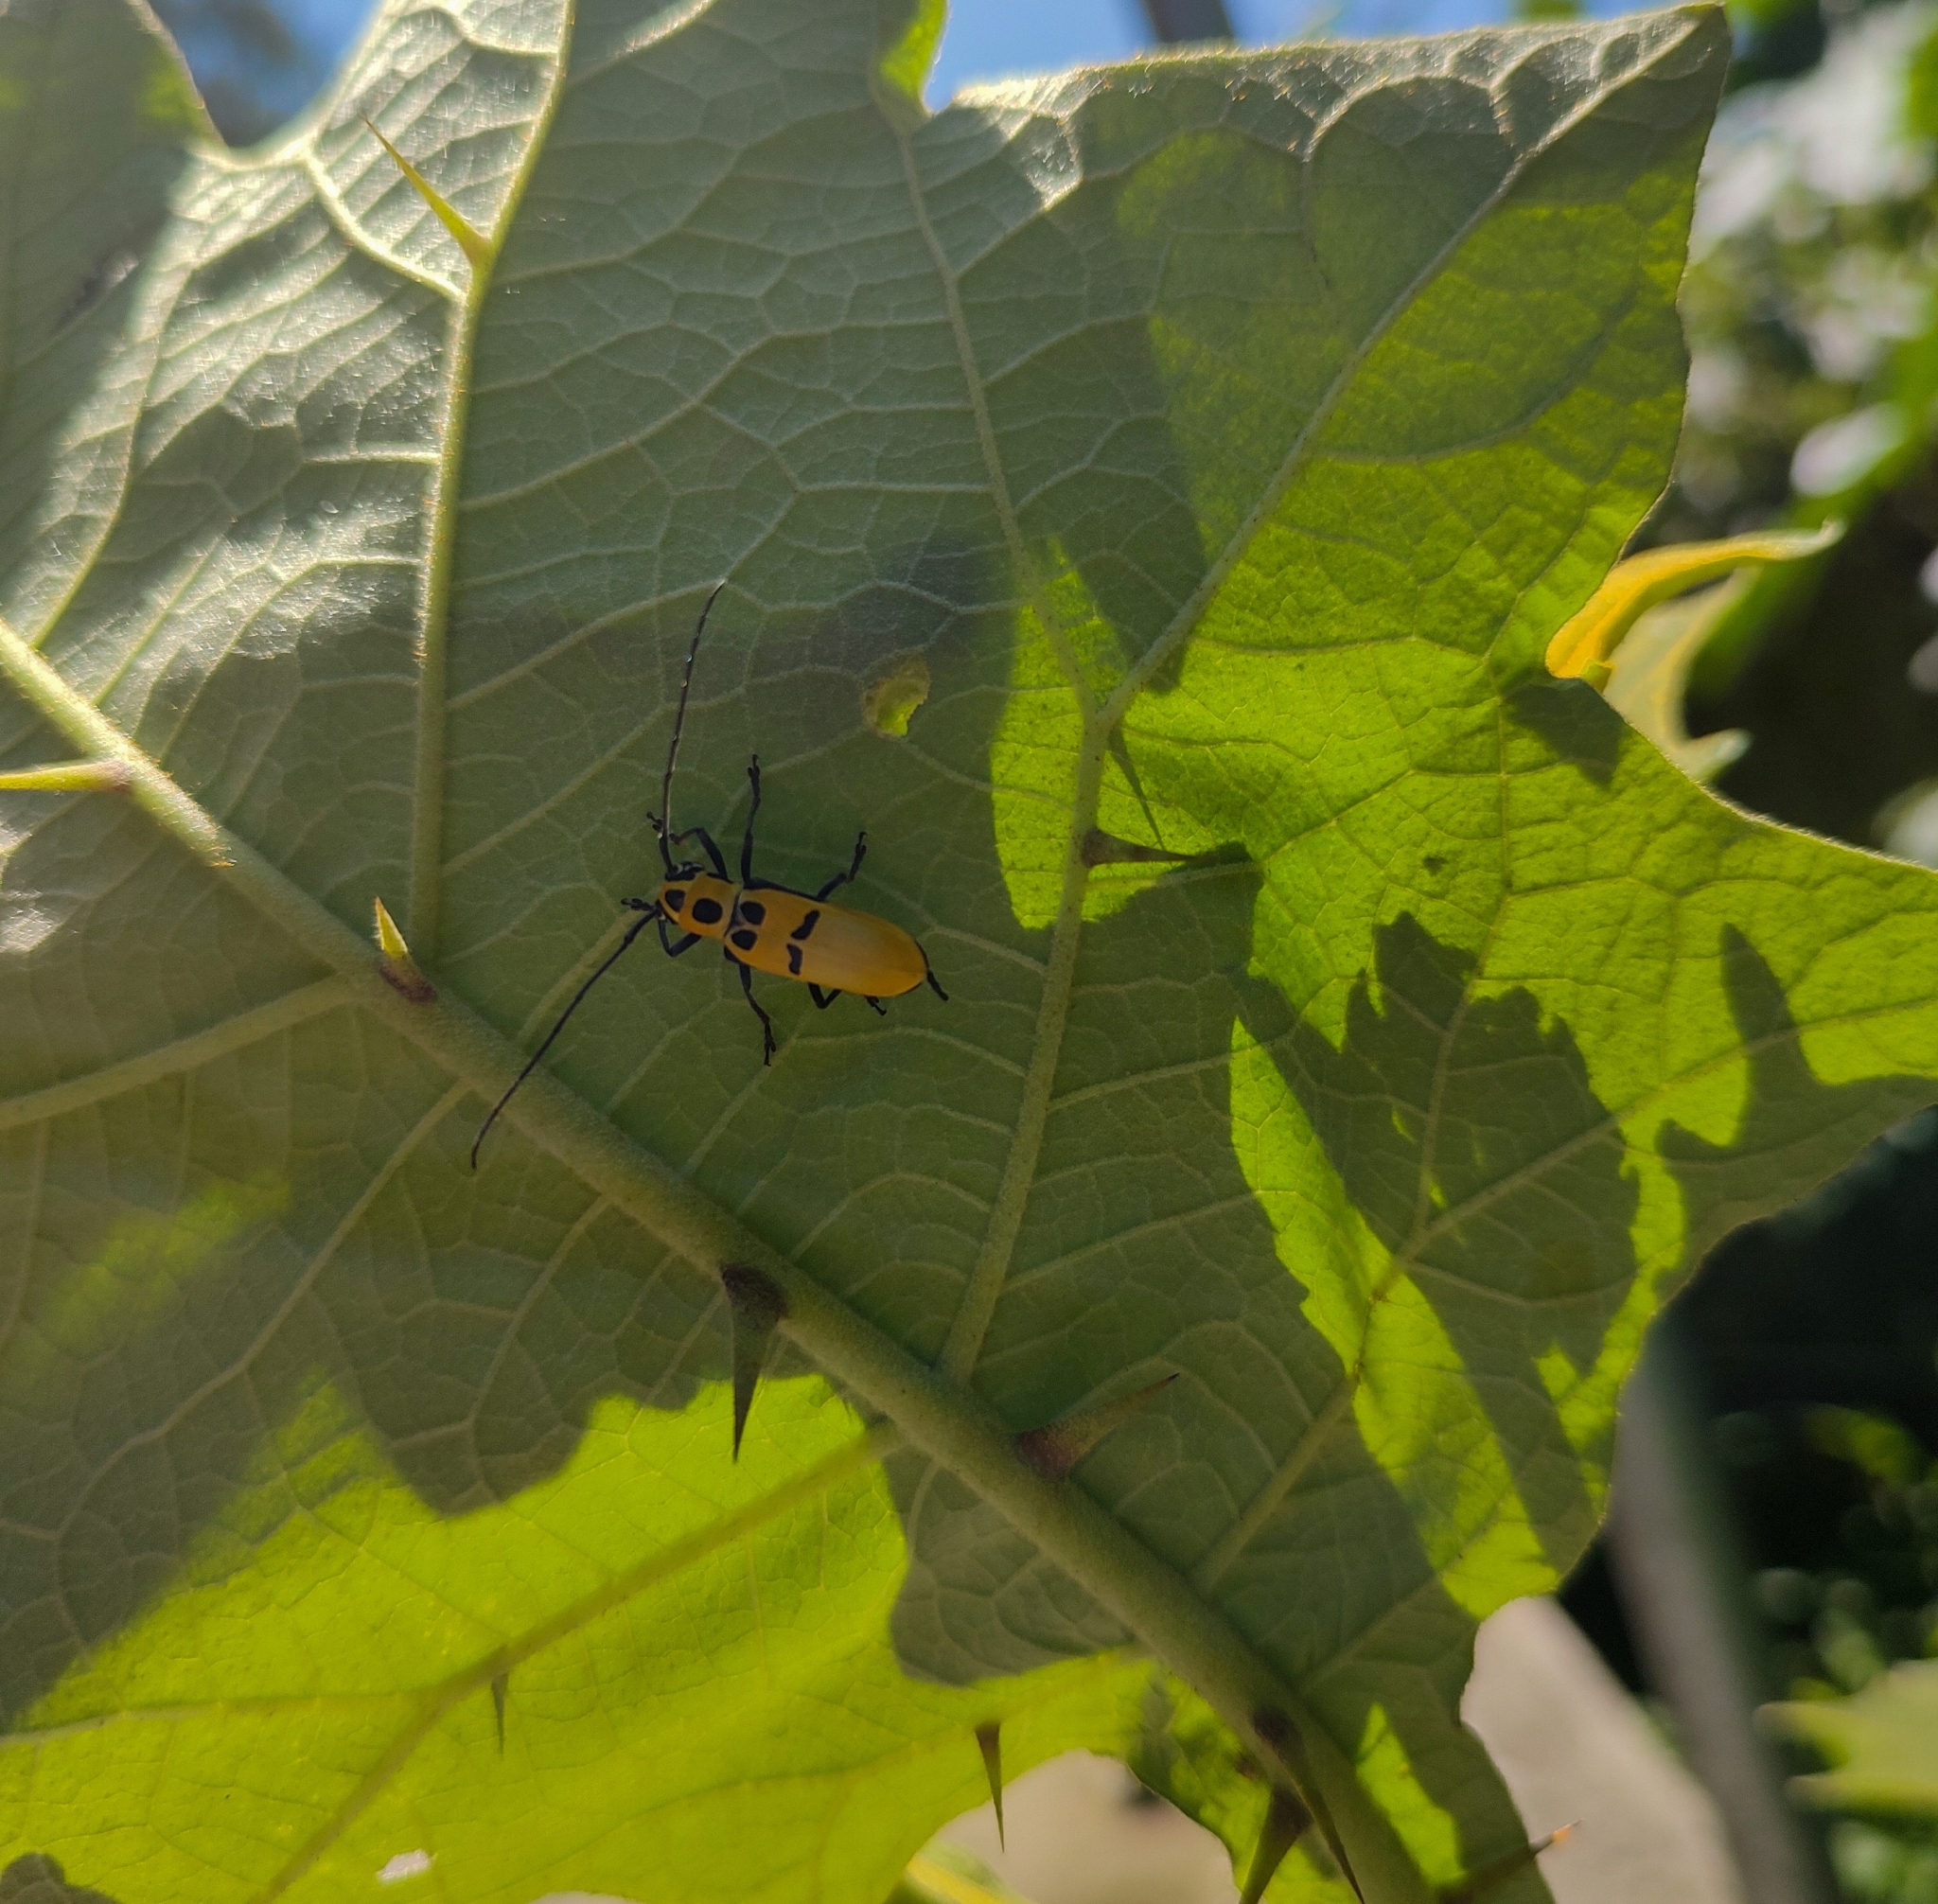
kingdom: Animalia
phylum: Arthropoda
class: Insecta
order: Coleoptera
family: Cerambycidae
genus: Adesmus
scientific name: Adesmus hemispilus
